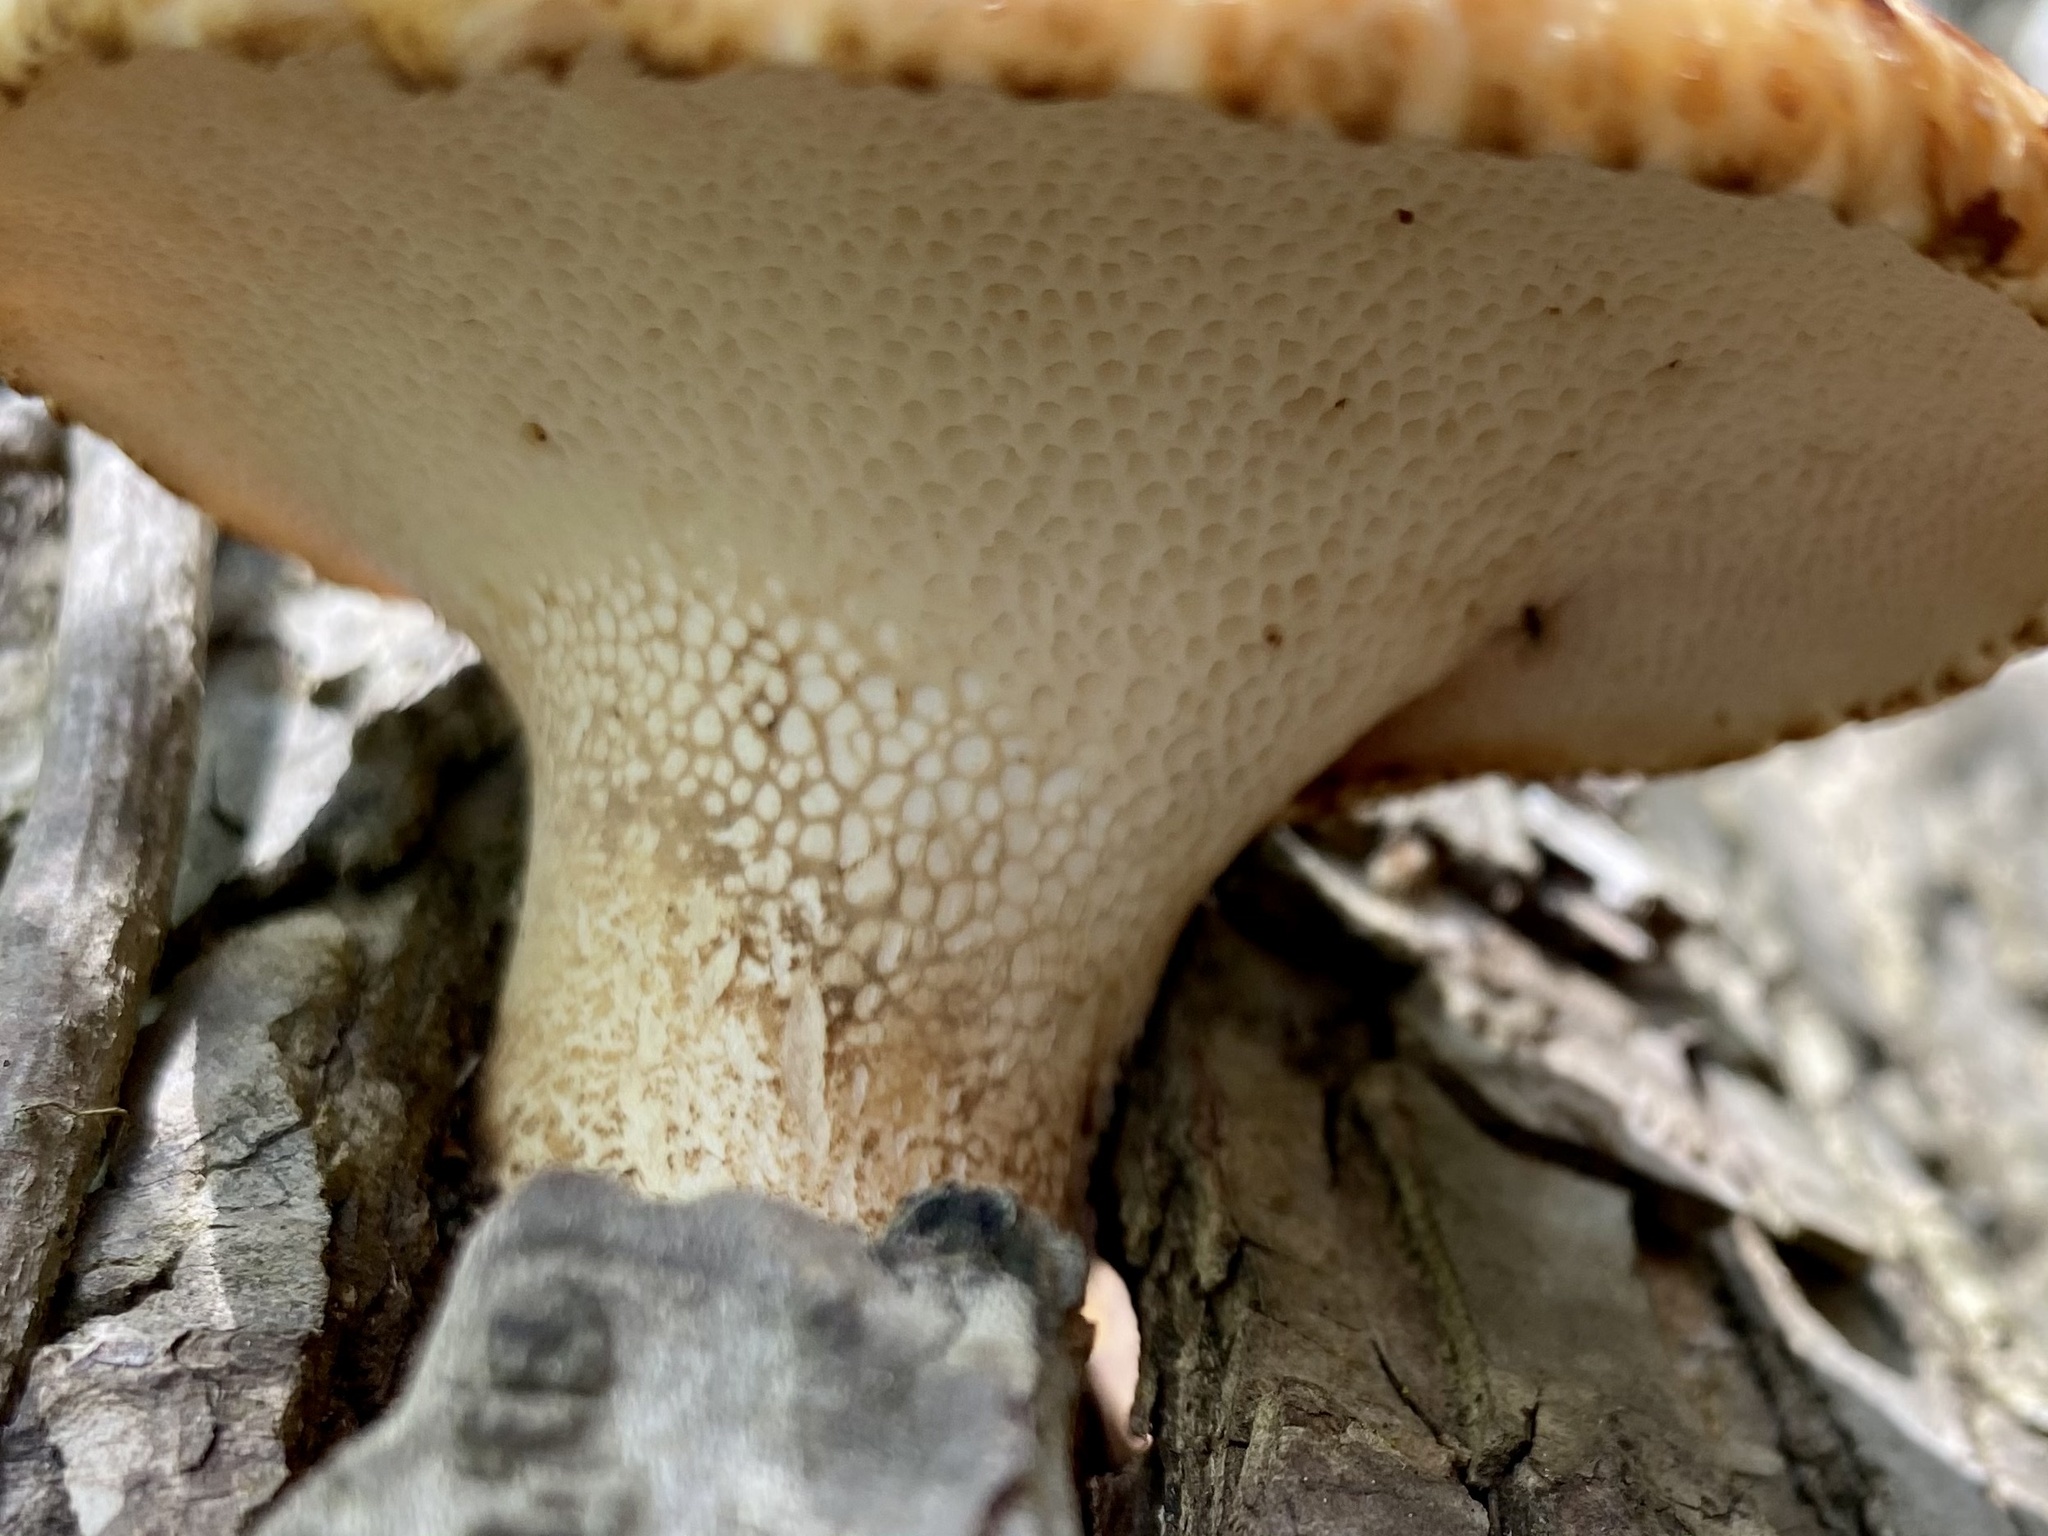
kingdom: Fungi
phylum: Basidiomycota
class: Agaricomycetes
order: Polyporales
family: Polyporaceae
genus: Cerioporus
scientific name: Cerioporus squamosus
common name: Dryad's saddle
